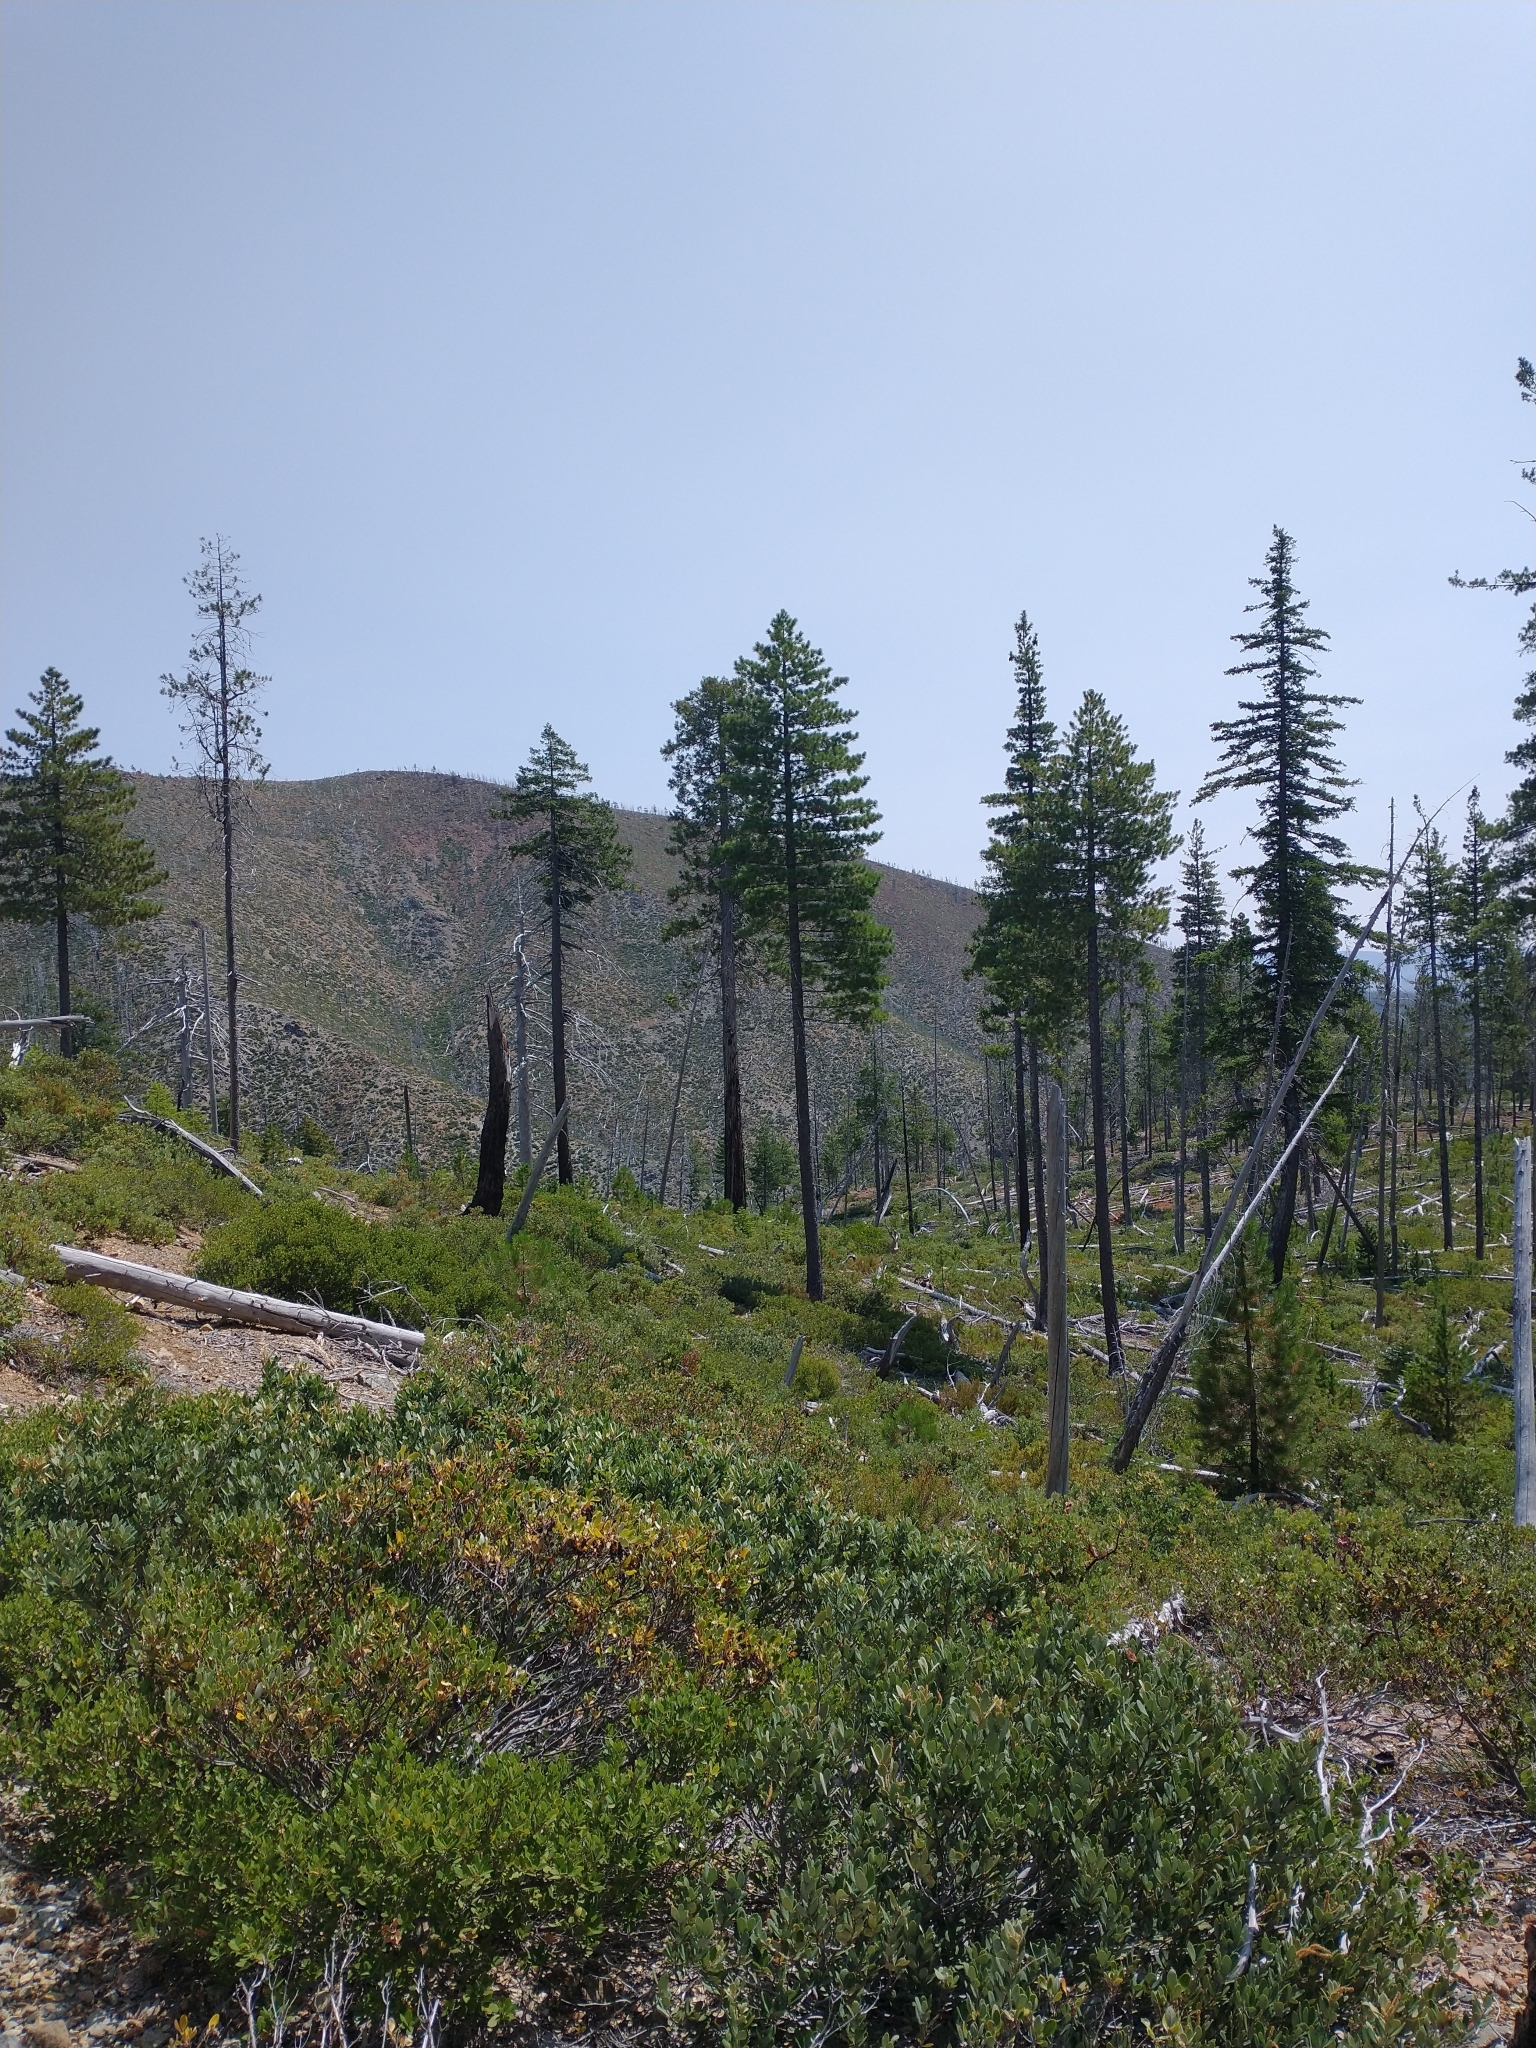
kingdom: Plantae
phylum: Tracheophyta
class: Pinopsida
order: Pinales
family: Cupressaceae
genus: Chamaecyparis
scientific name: Chamaecyparis lawsoniana
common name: Lawson's cypress
